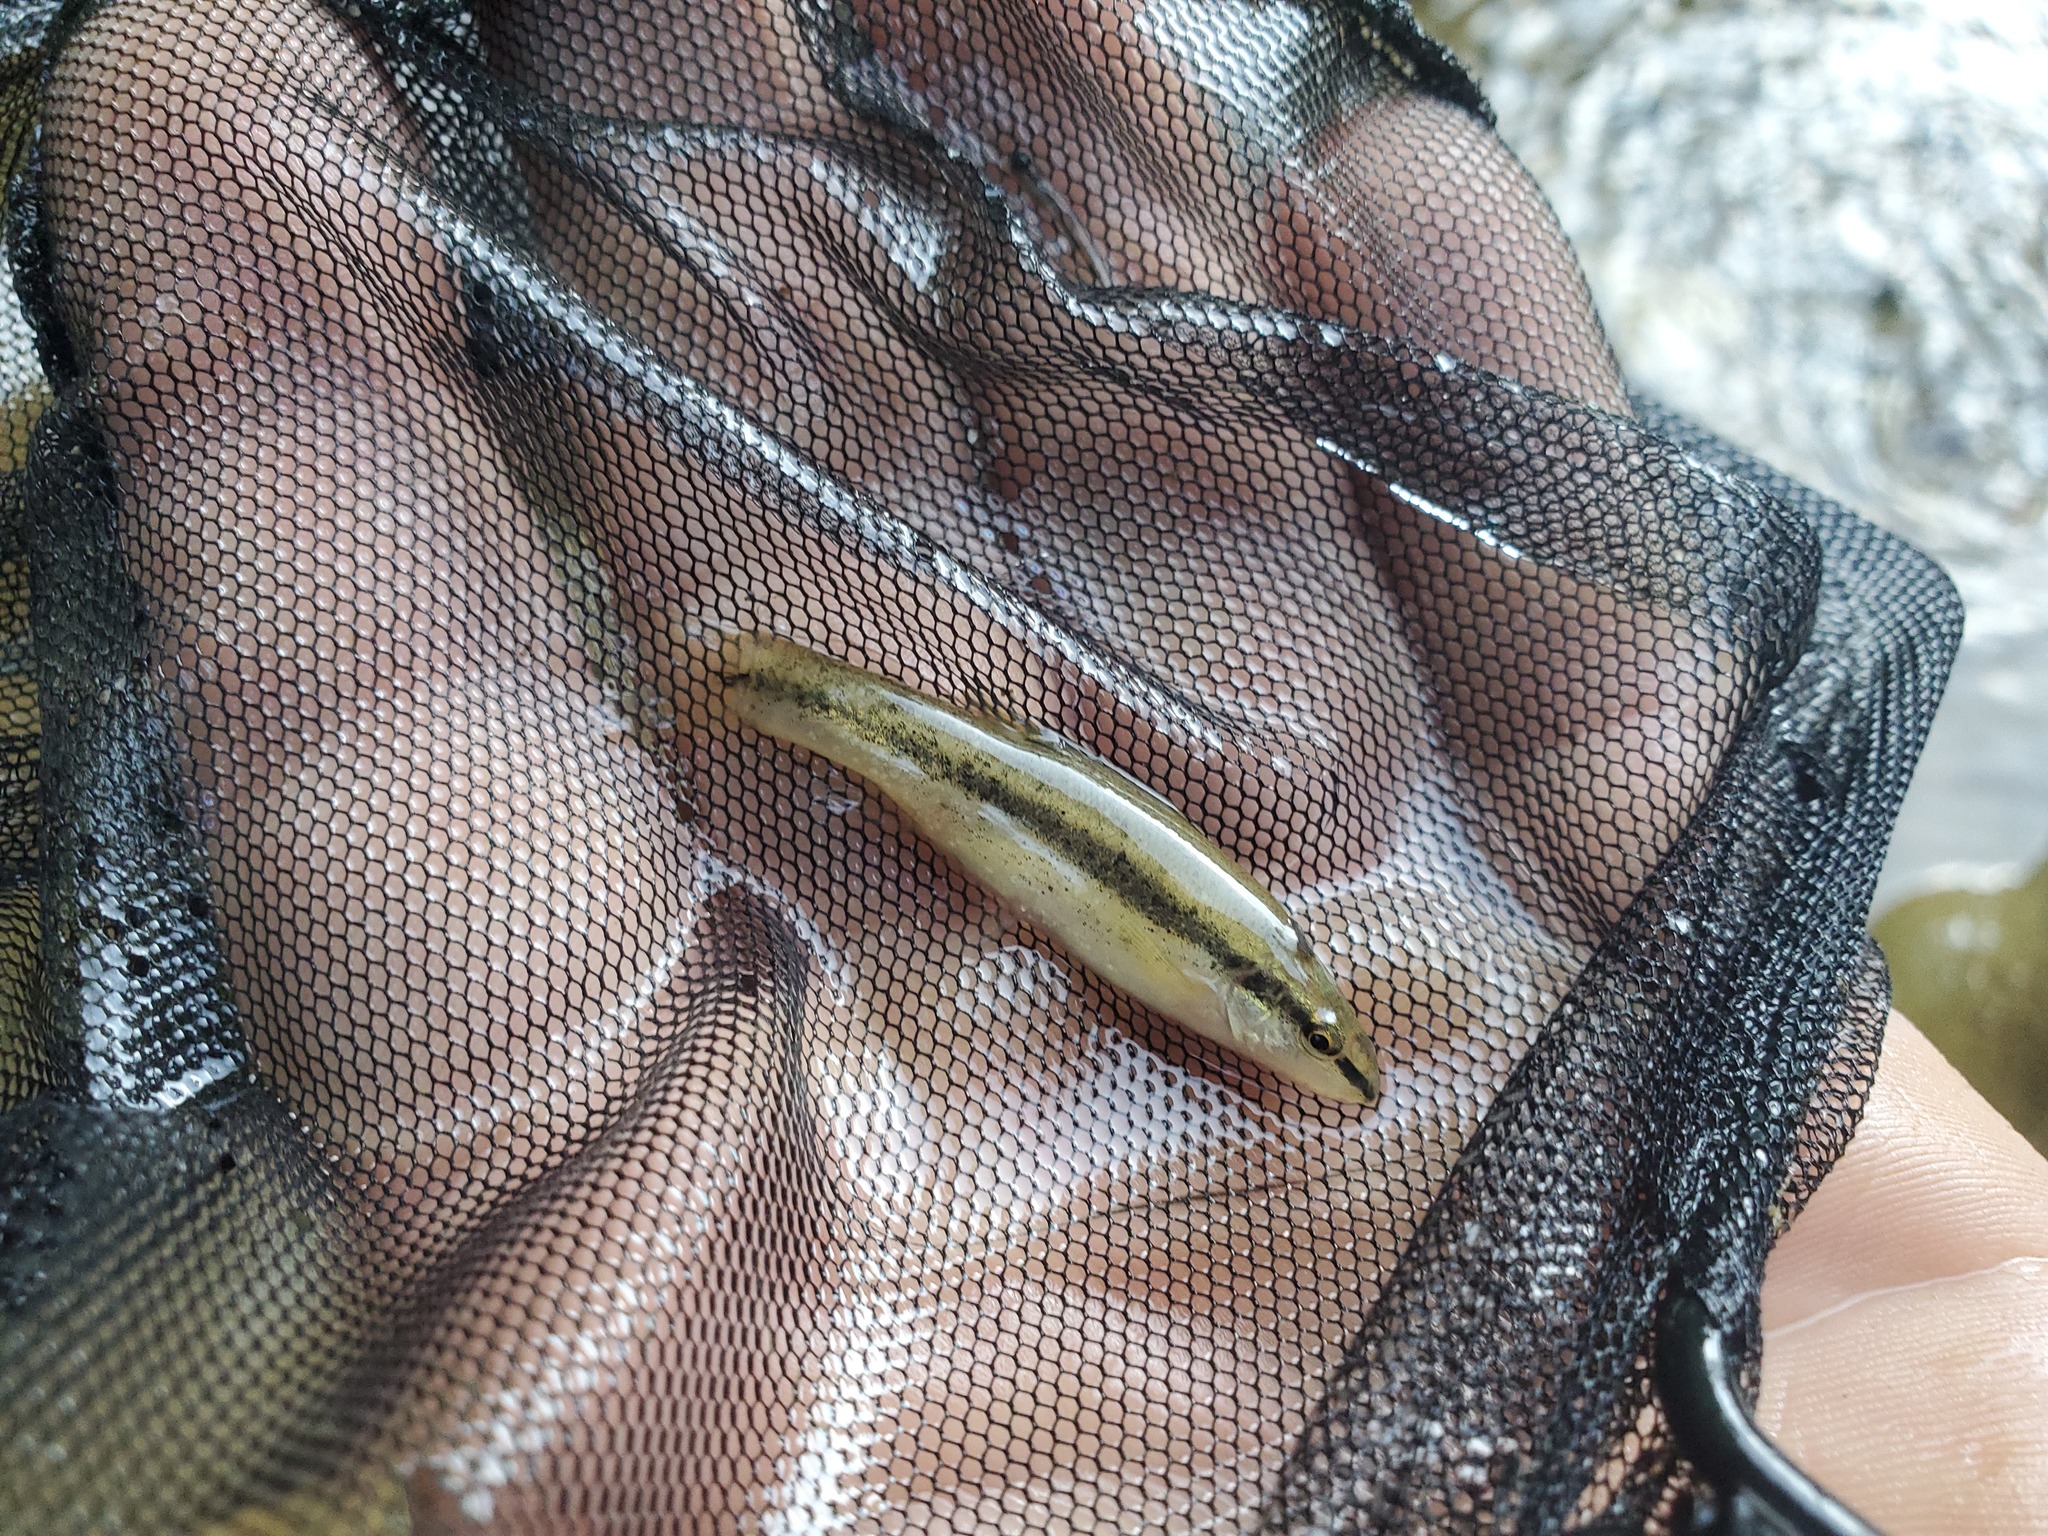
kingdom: Animalia
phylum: Chordata
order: Cypriniformes
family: Cyprinidae
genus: Rhinichthys
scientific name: Rhinichthys obtusus
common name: Western blacknose dace
